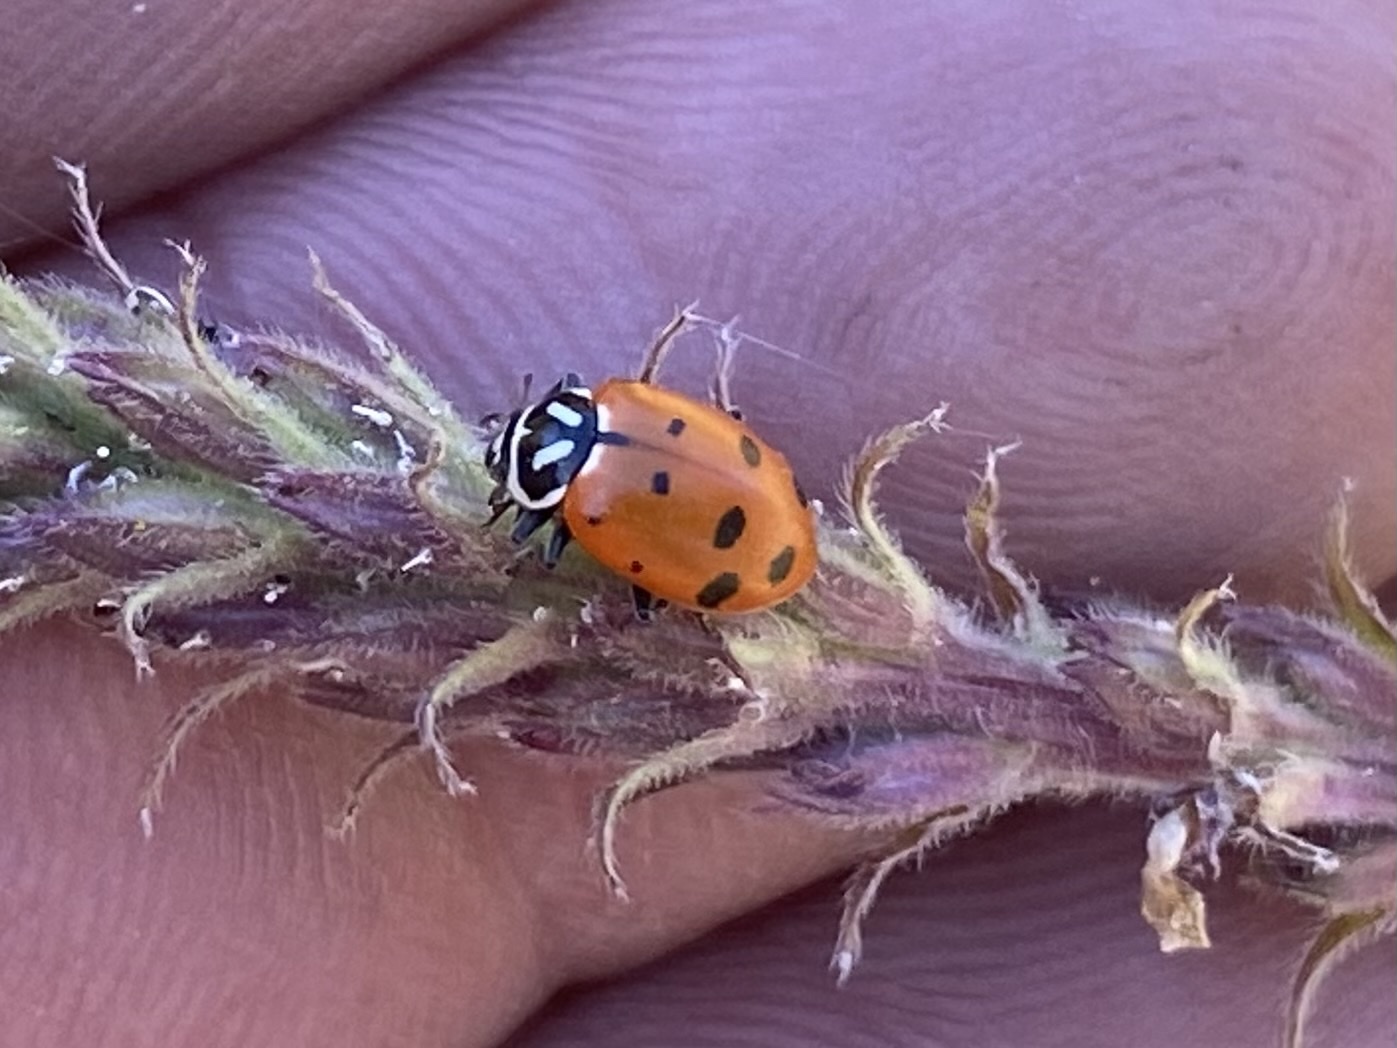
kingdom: Animalia
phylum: Arthropoda
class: Insecta
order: Coleoptera
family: Coccinellidae
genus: Hippodamia
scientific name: Hippodamia convergens
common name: Convergent lady beetle
